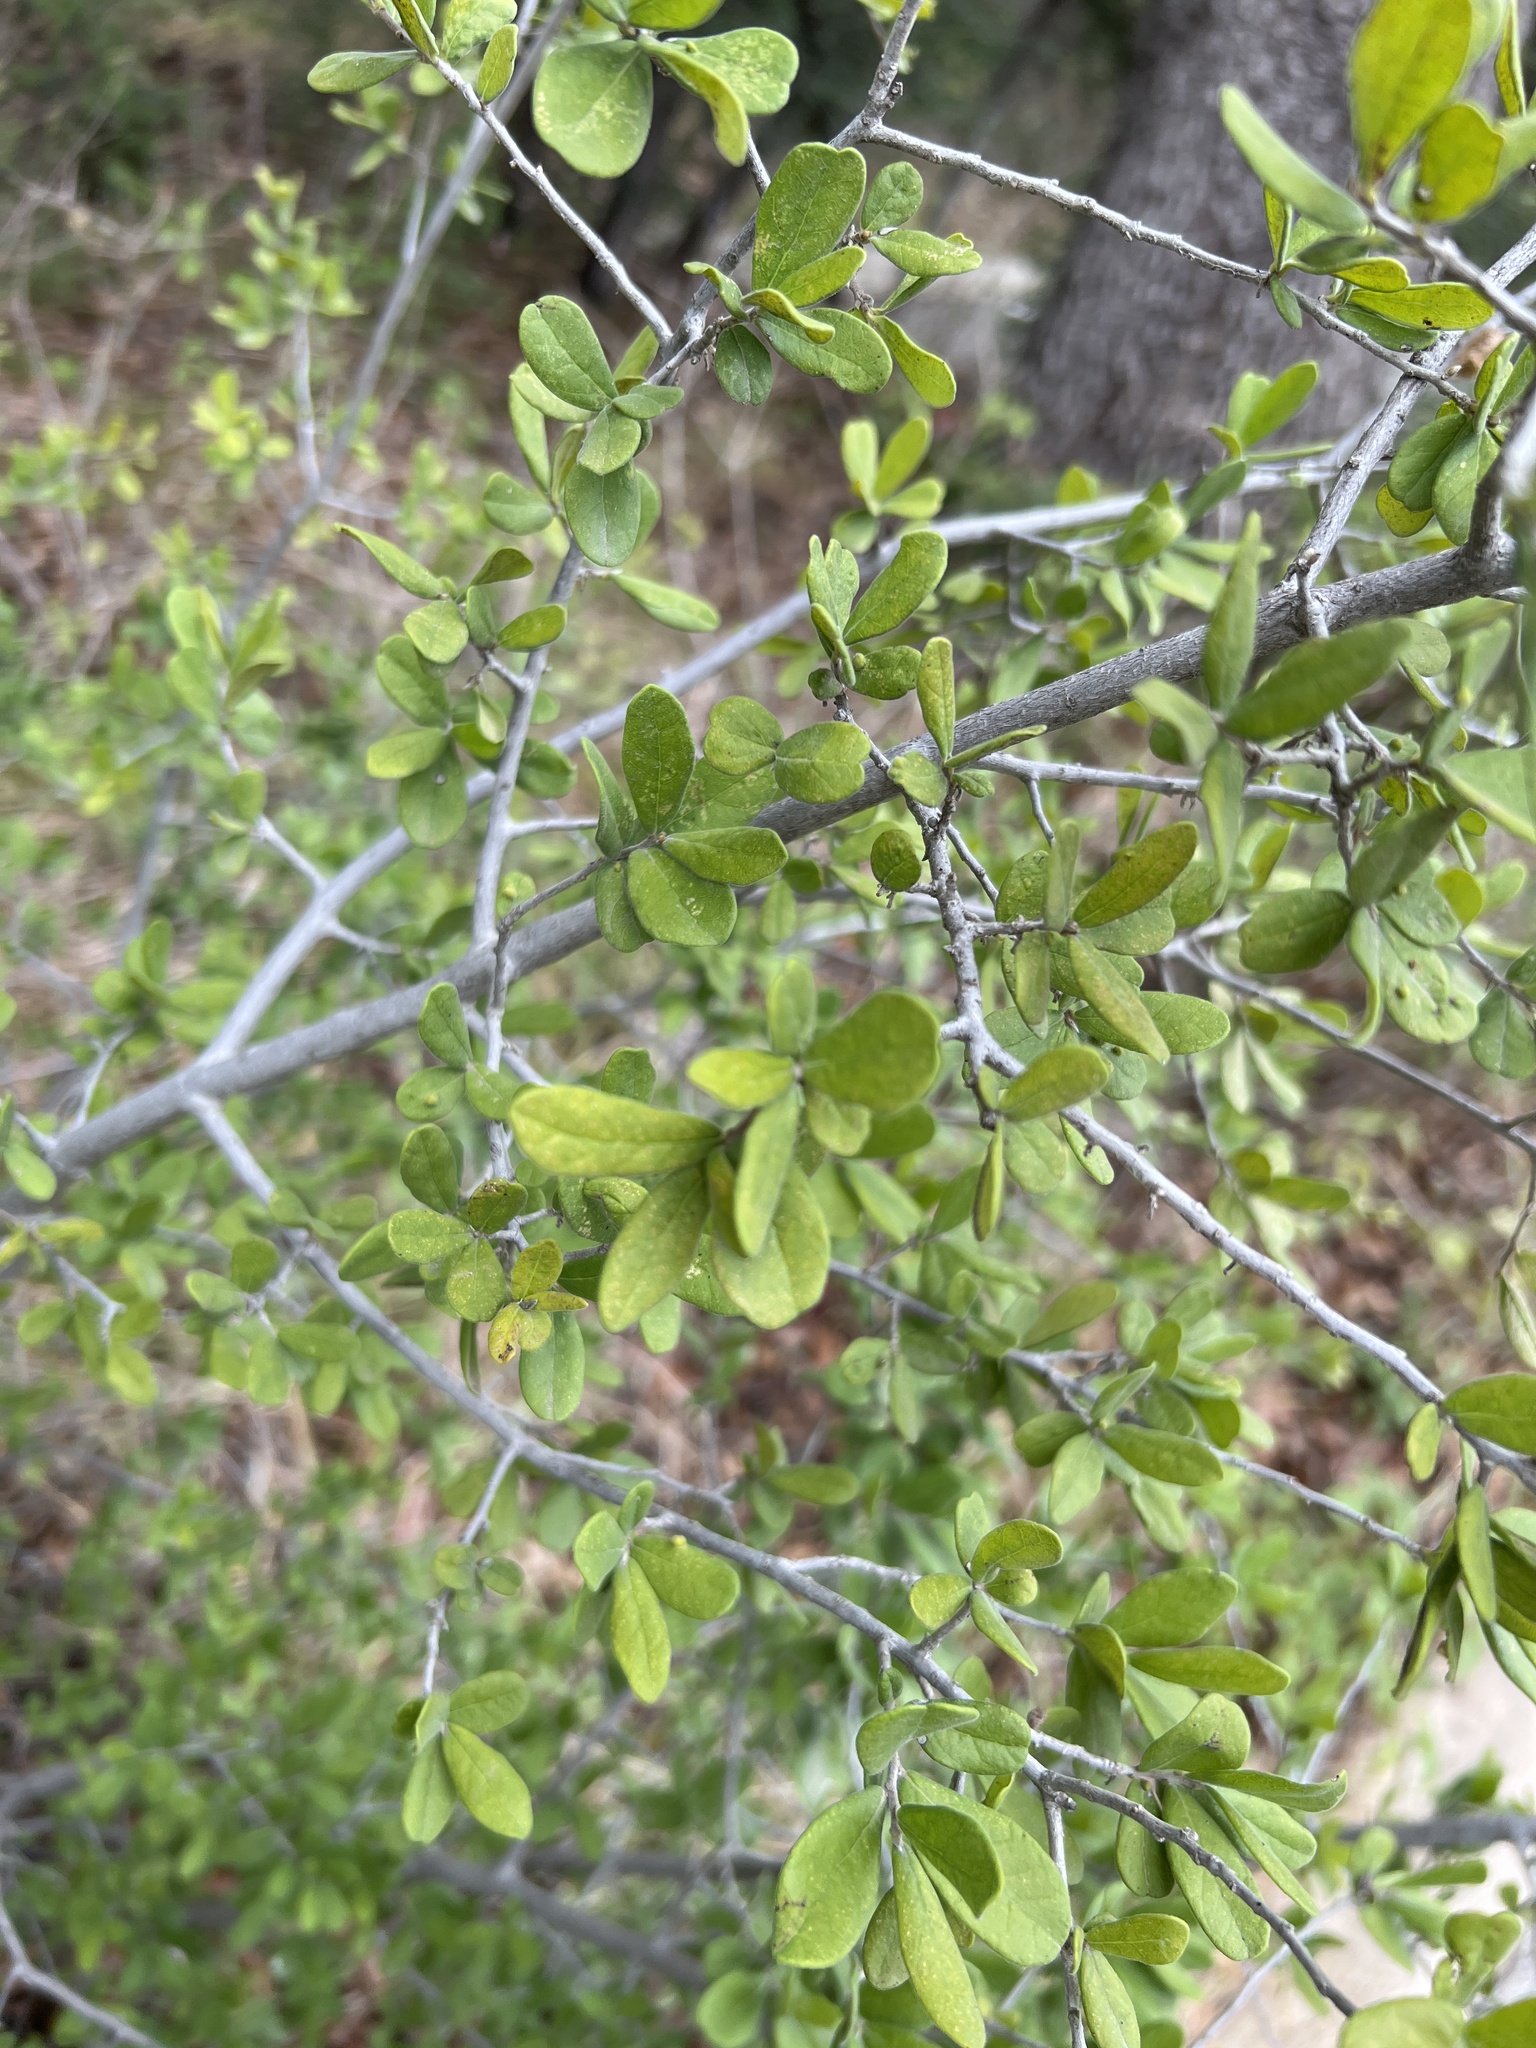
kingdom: Plantae
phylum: Tracheophyta
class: Magnoliopsida
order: Ericales
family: Ebenaceae
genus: Diospyros
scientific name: Diospyros texana
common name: Texas persimmon
